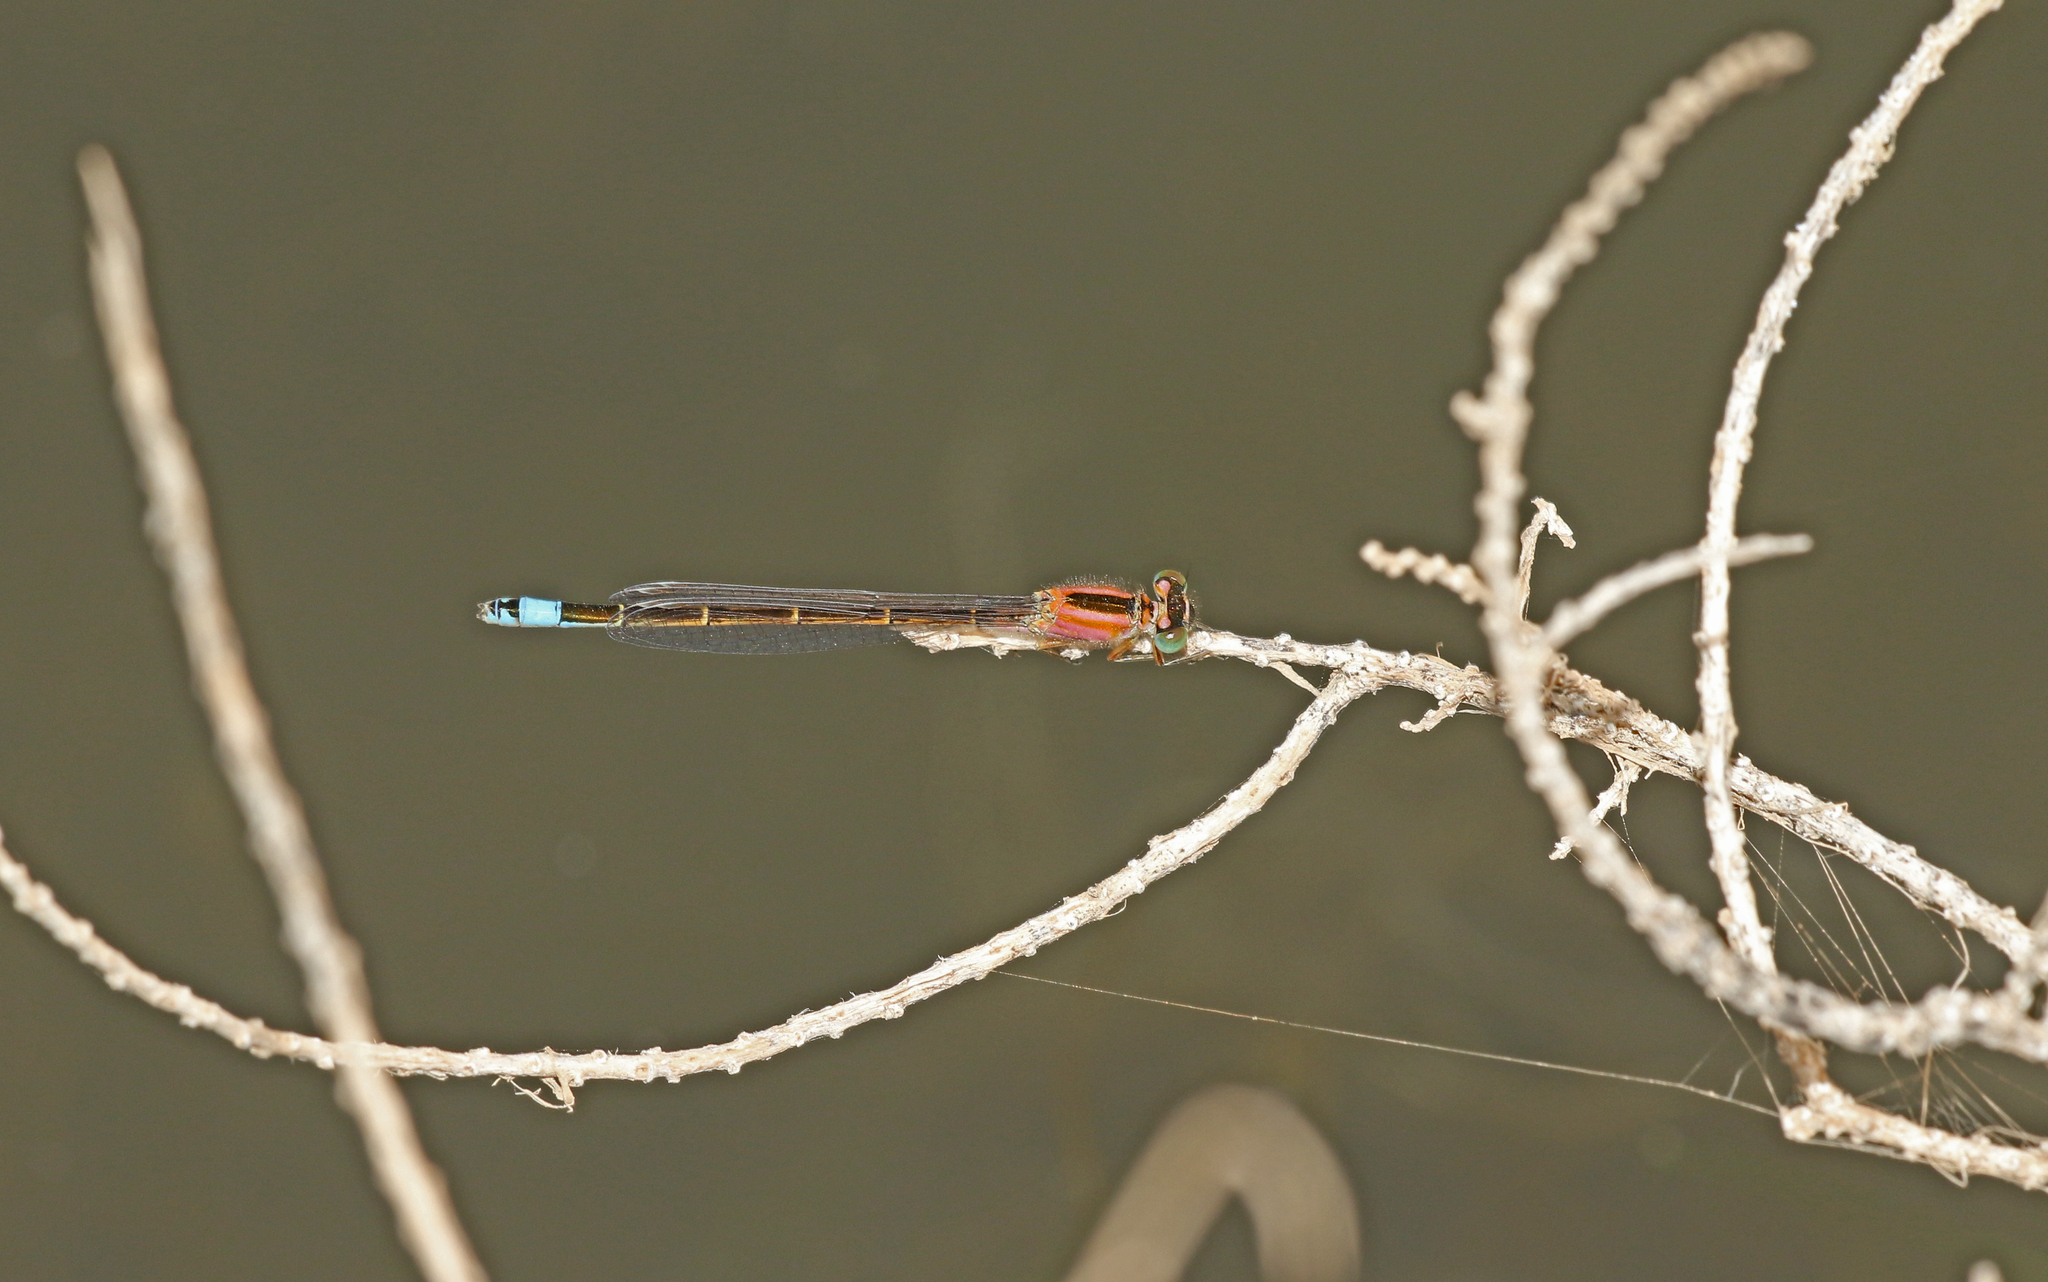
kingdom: Animalia
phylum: Arthropoda
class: Insecta
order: Odonata
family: Coenagrionidae
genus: Ischnura
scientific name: Ischnura saharensis
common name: Sahara bluetail
